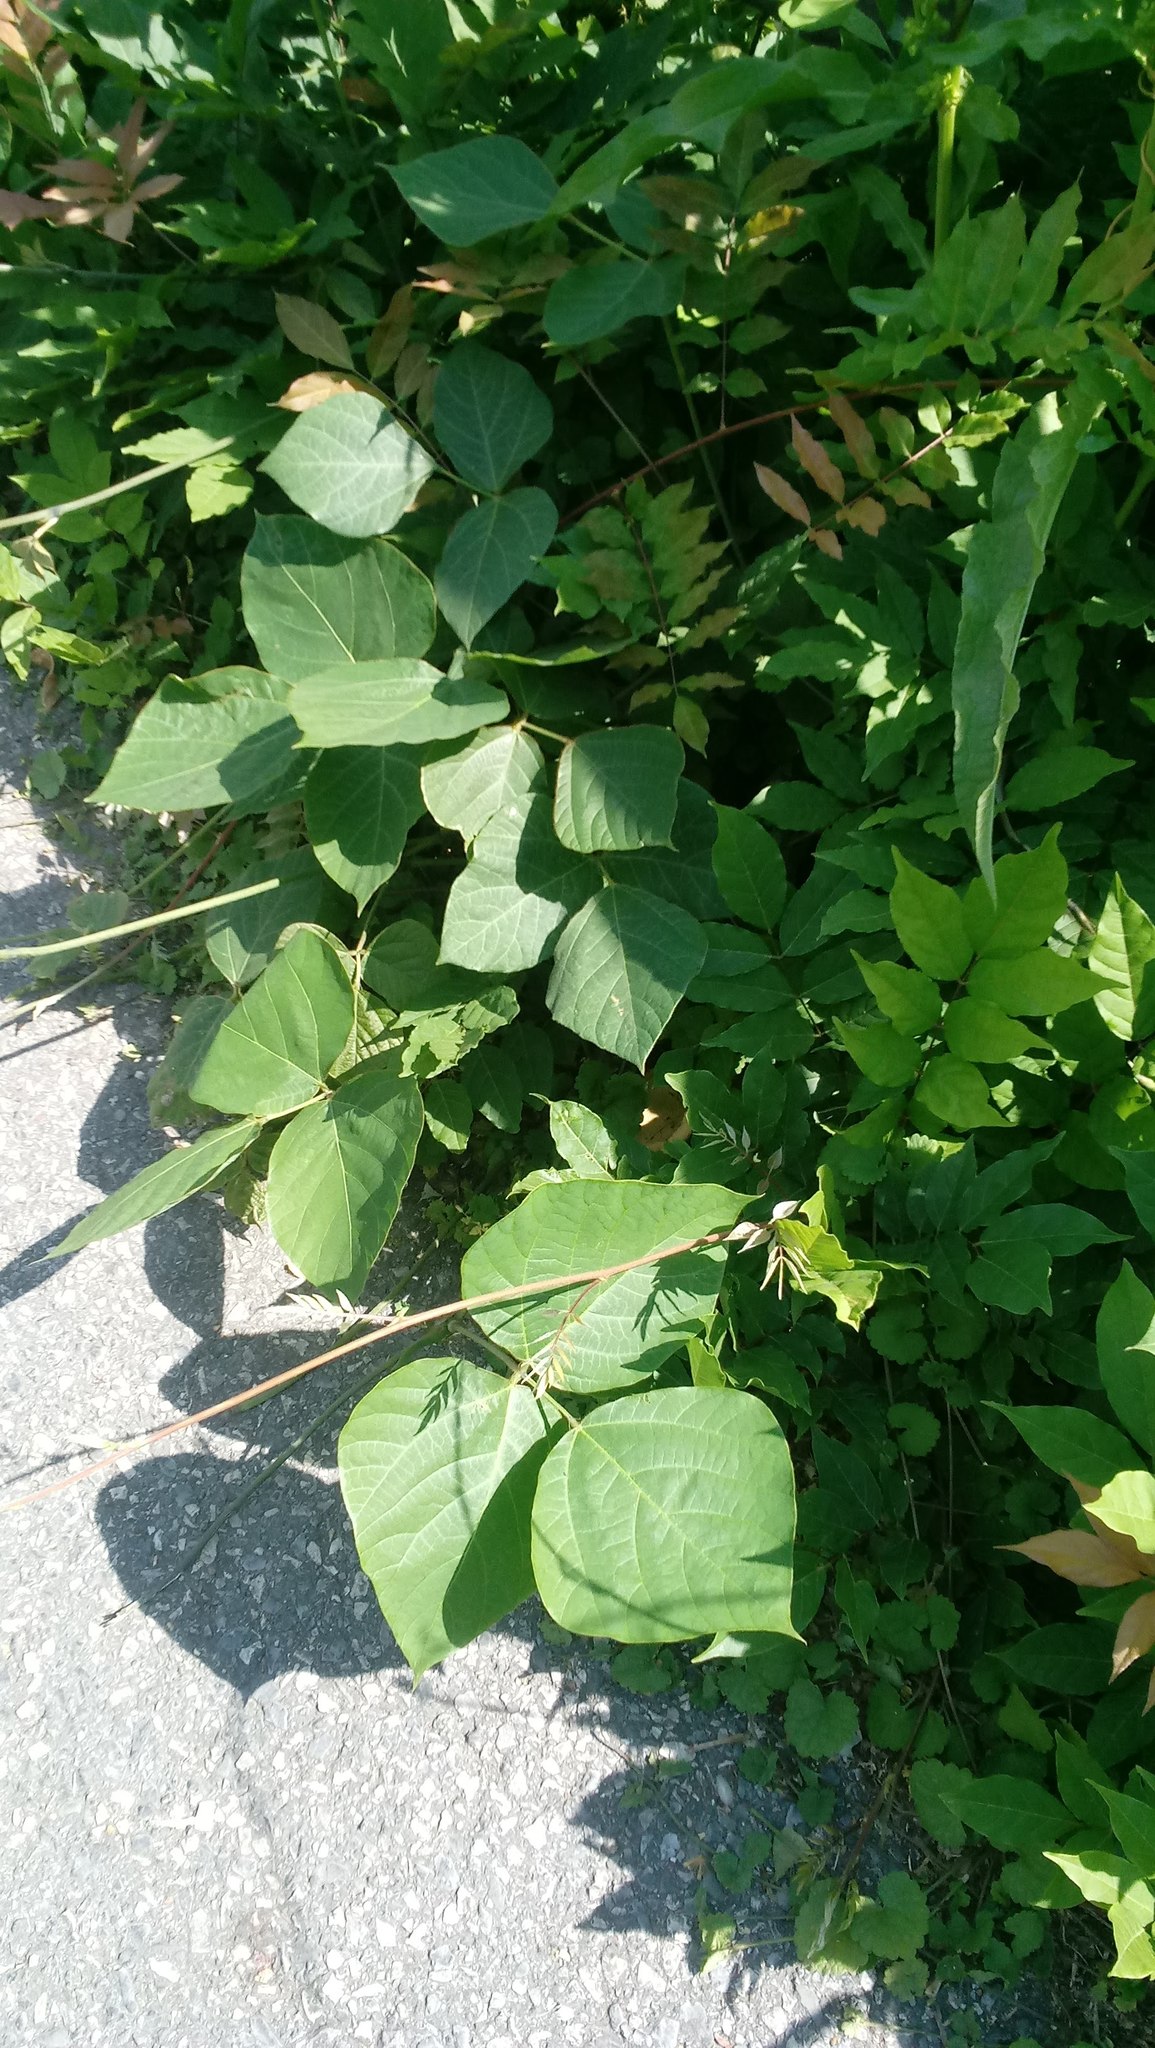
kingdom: Plantae
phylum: Tracheophyta
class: Magnoliopsida
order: Fabales
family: Fabaceae
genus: Pueraria
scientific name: Pueraria montana
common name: Kudzu
